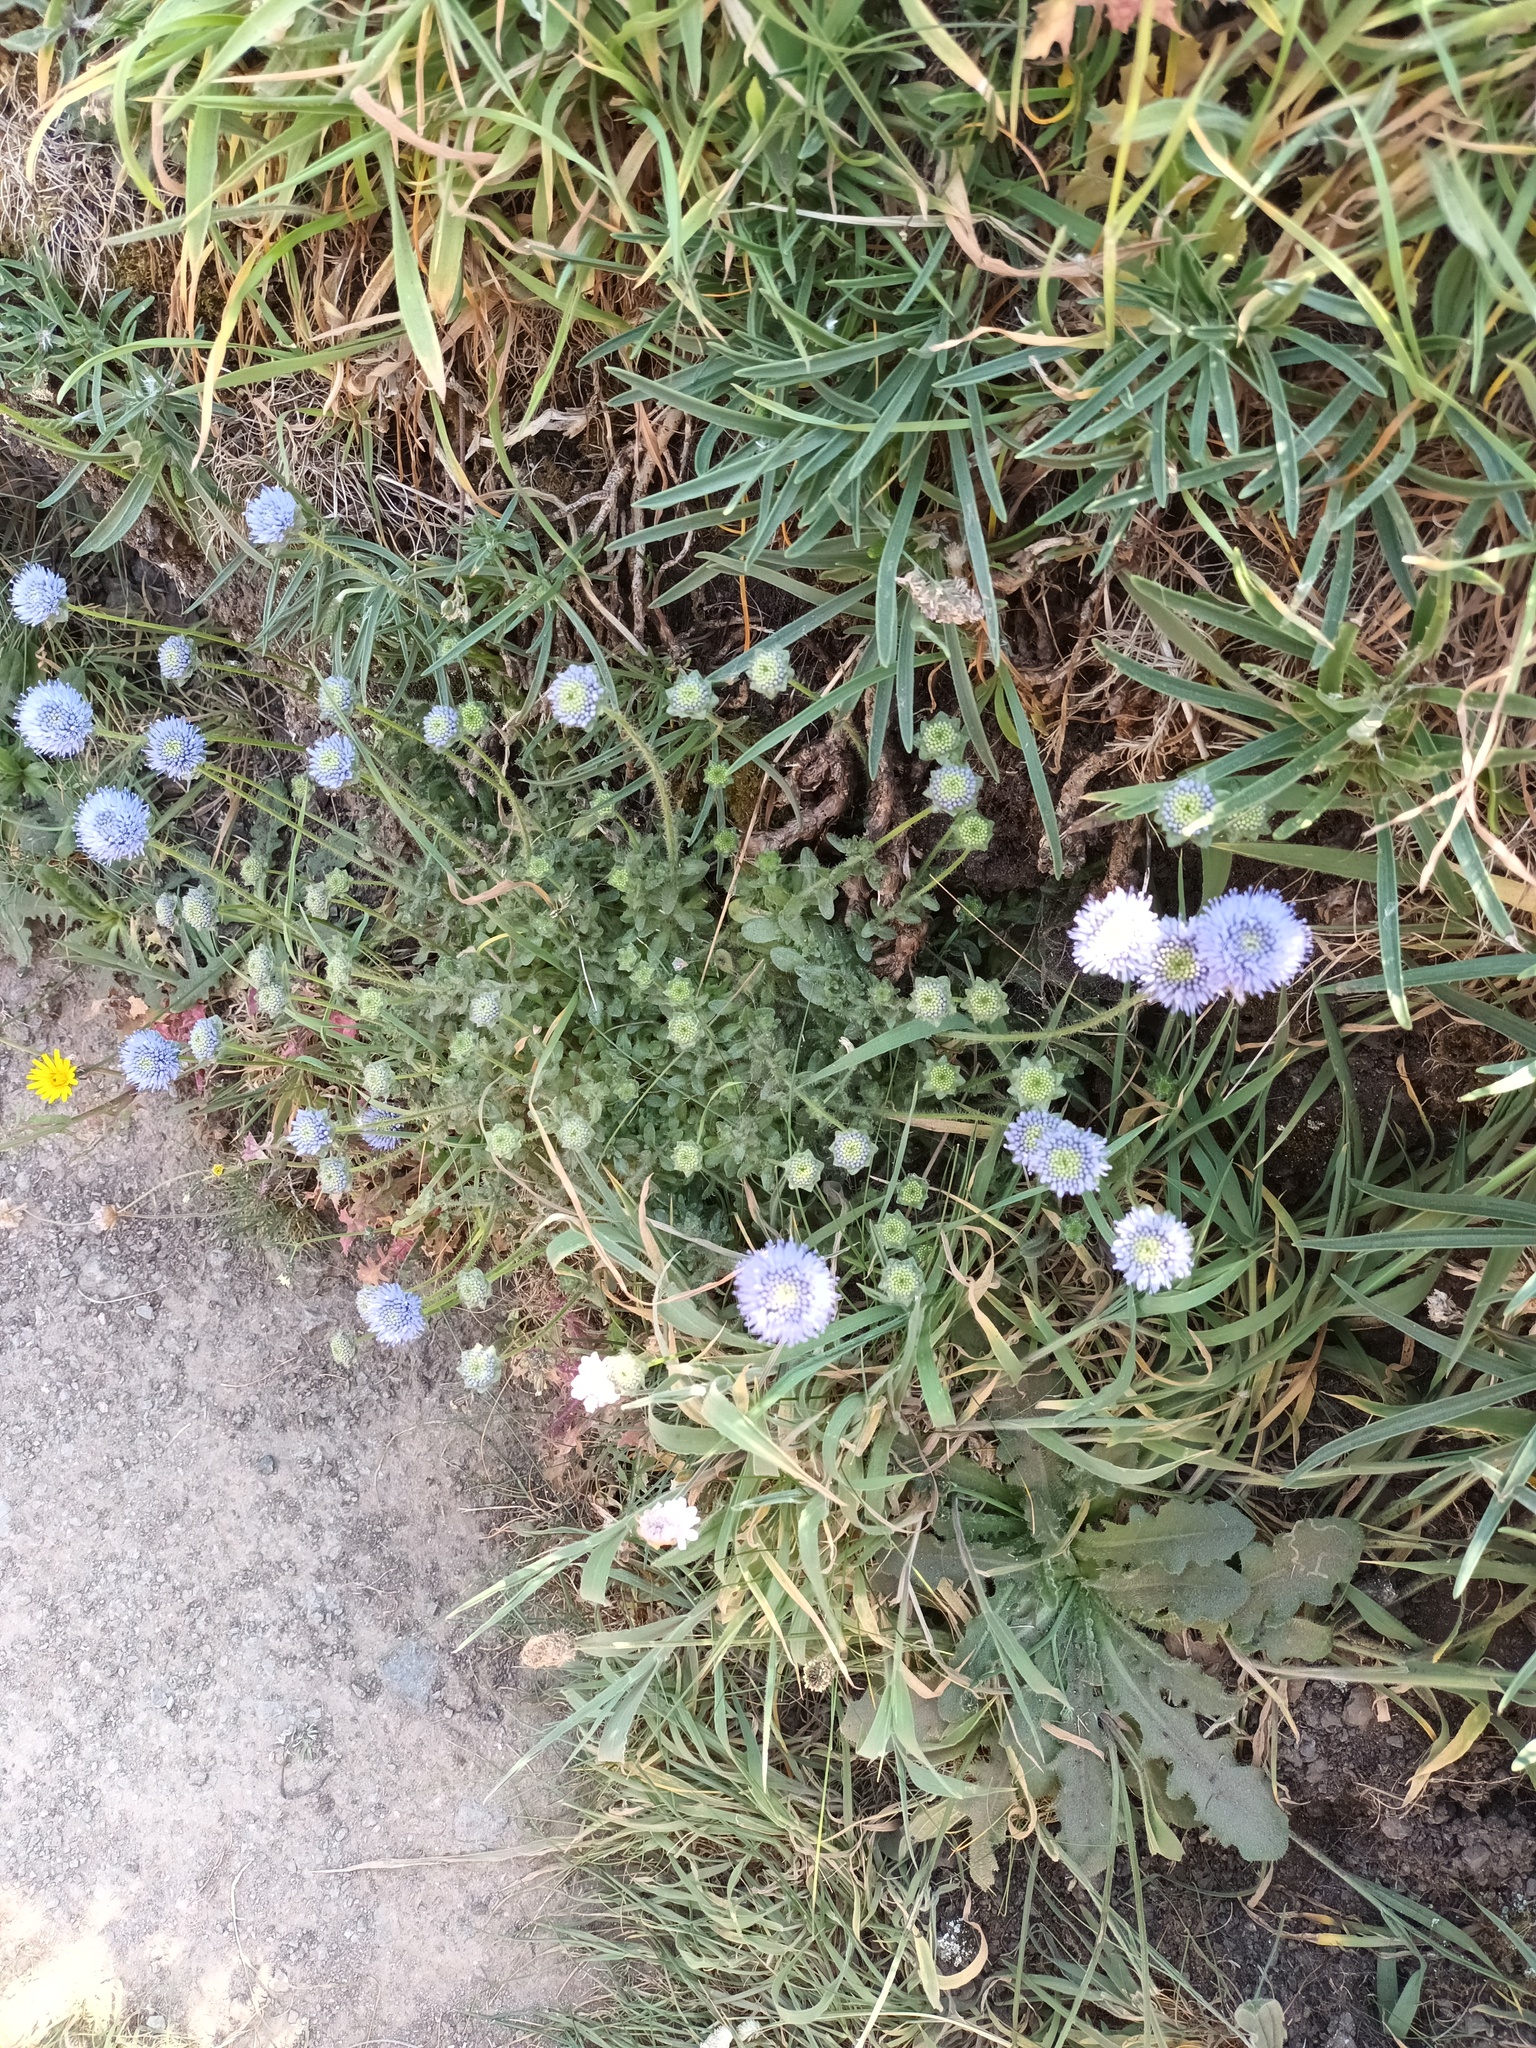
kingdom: Plantae
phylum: Tracheophyta
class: Magnoliopsida
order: Asterales
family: Campanulaceae
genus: Jasione
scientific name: Jasione montana
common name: Sheep's-bit
